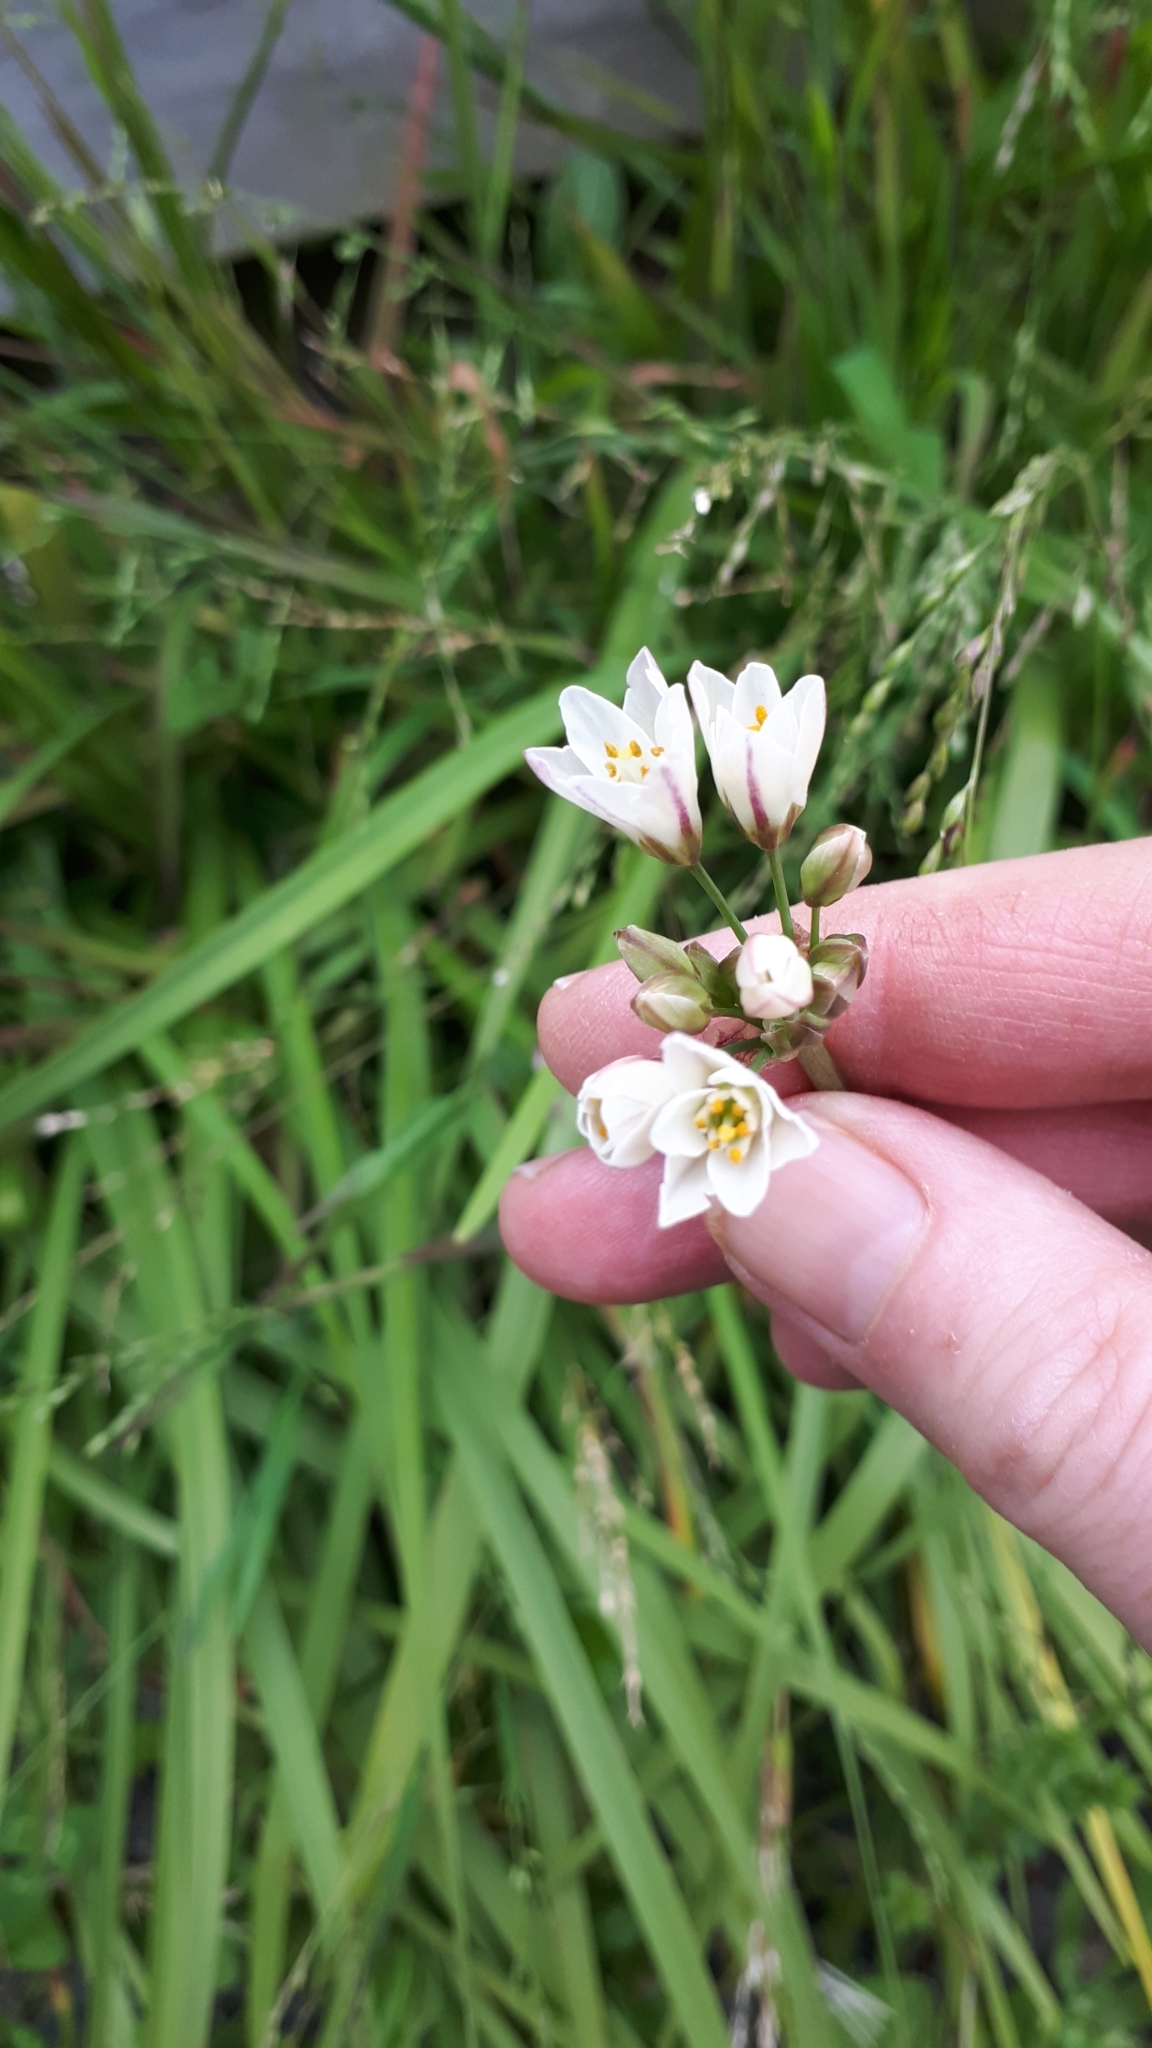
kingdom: Plantae
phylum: Tracheophyta
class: Liliopsida
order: Asparagales
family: Amaryllidaceae
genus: Nothoscordum
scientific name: Nothoscordum gracile
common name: Slender false garlic
